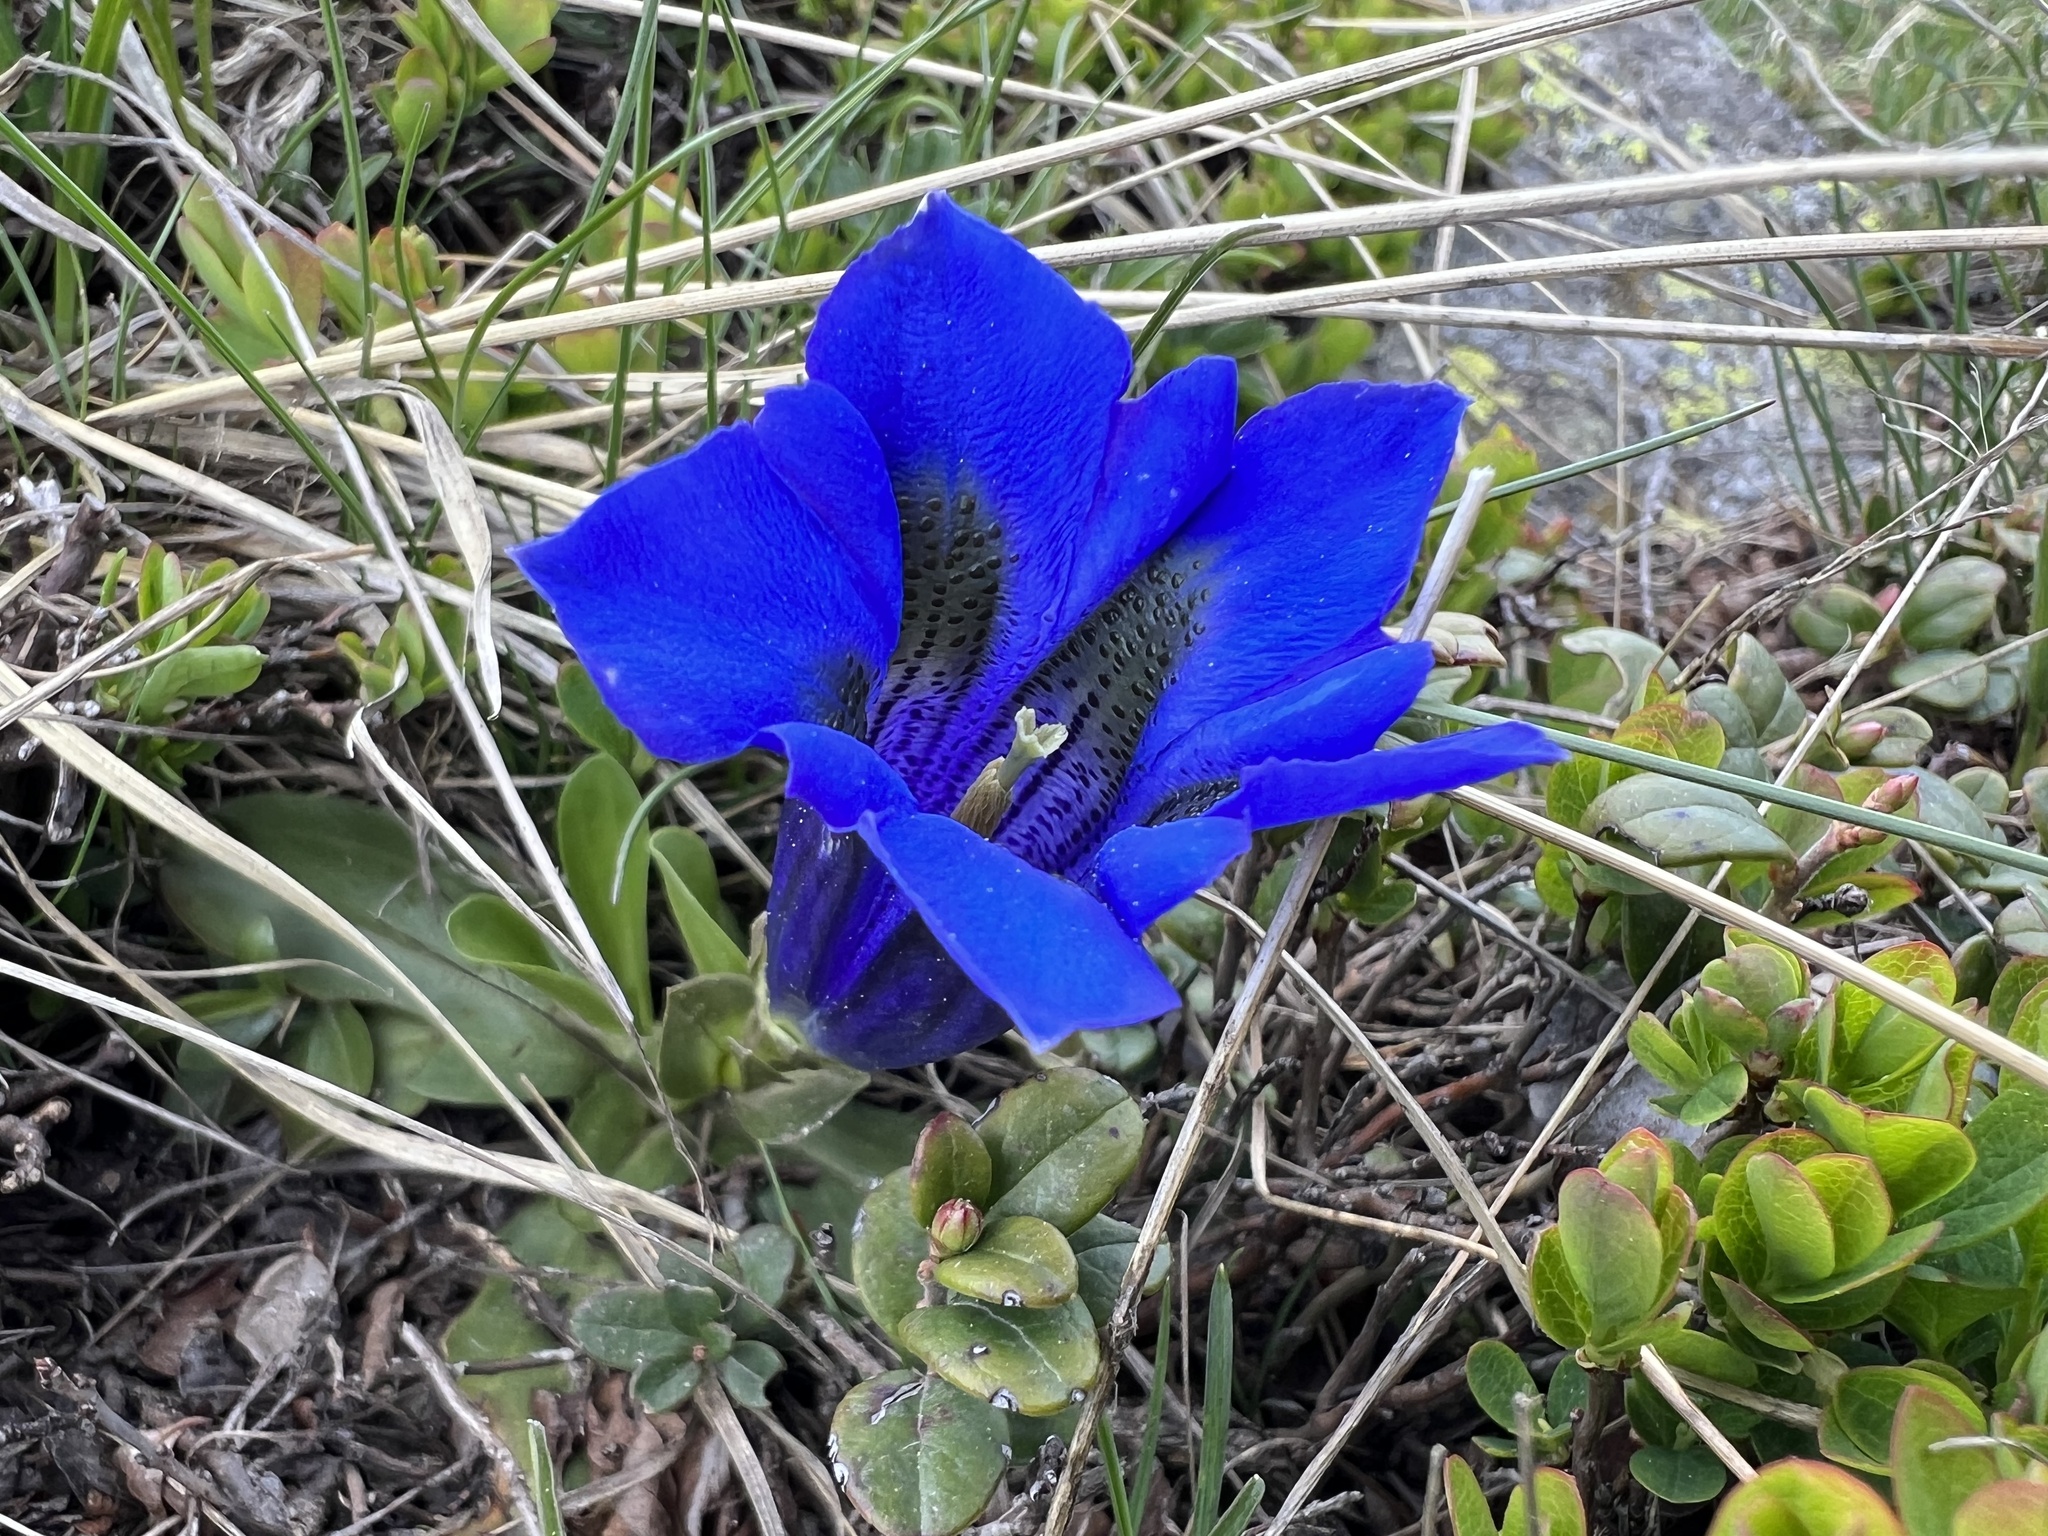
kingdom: Plantae
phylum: Tracheophyta
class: Magnoliopsida
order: Gentianales
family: Gentianaceae
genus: Gentiana
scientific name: Gentiana acaulis
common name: Trumpet gentian
